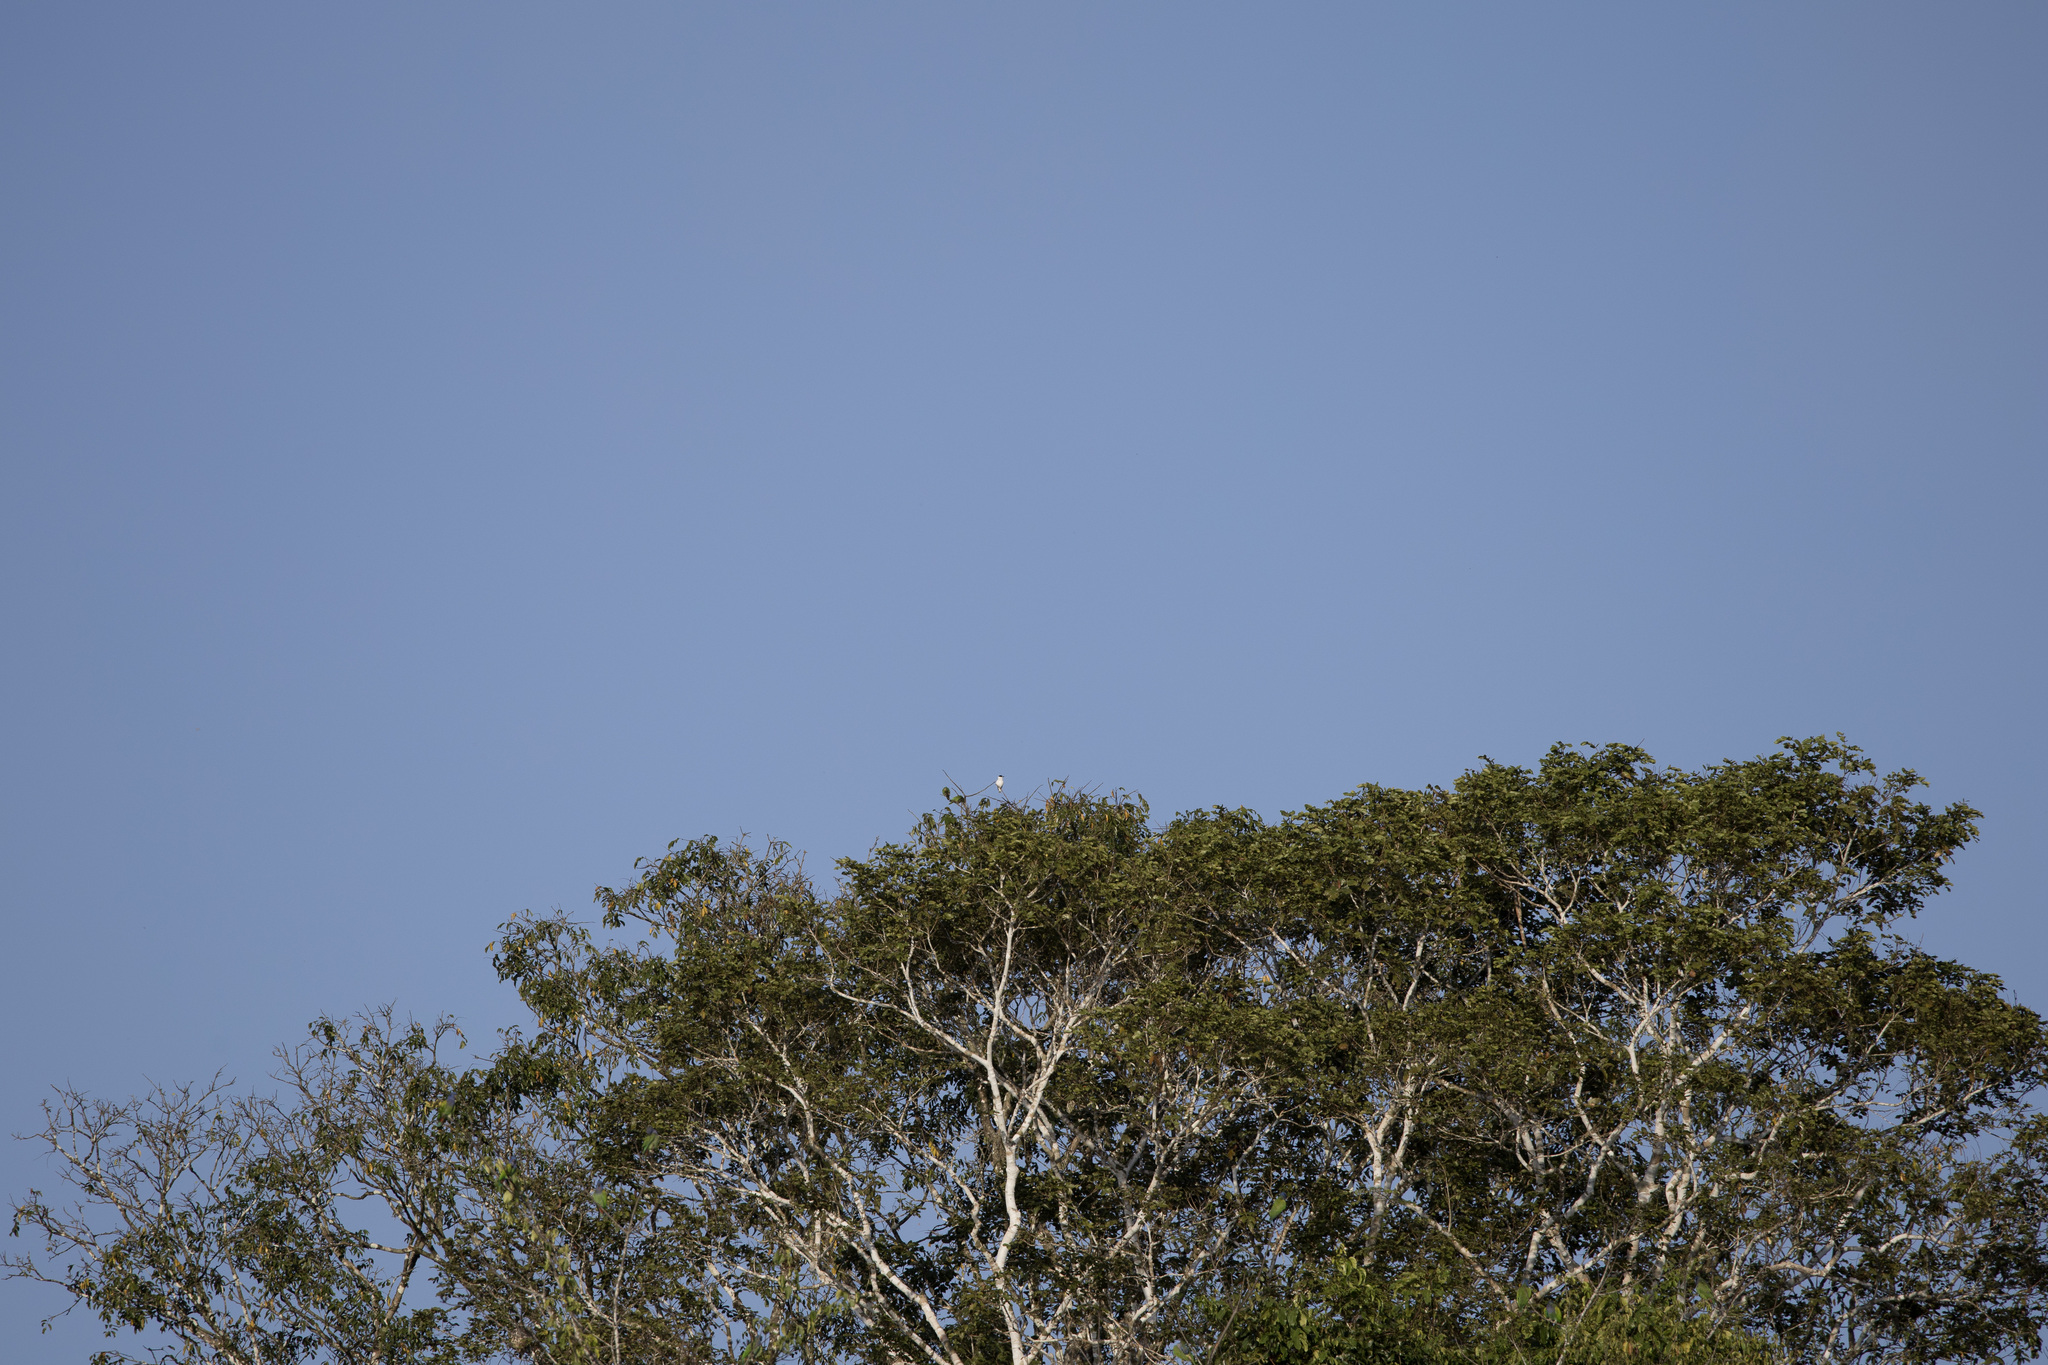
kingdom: Animalia
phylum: Chordata
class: Aves
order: Passeriformes
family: Cotingidae
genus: Tityra
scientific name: Tityra inquisitor
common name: Black-crowned tityra
